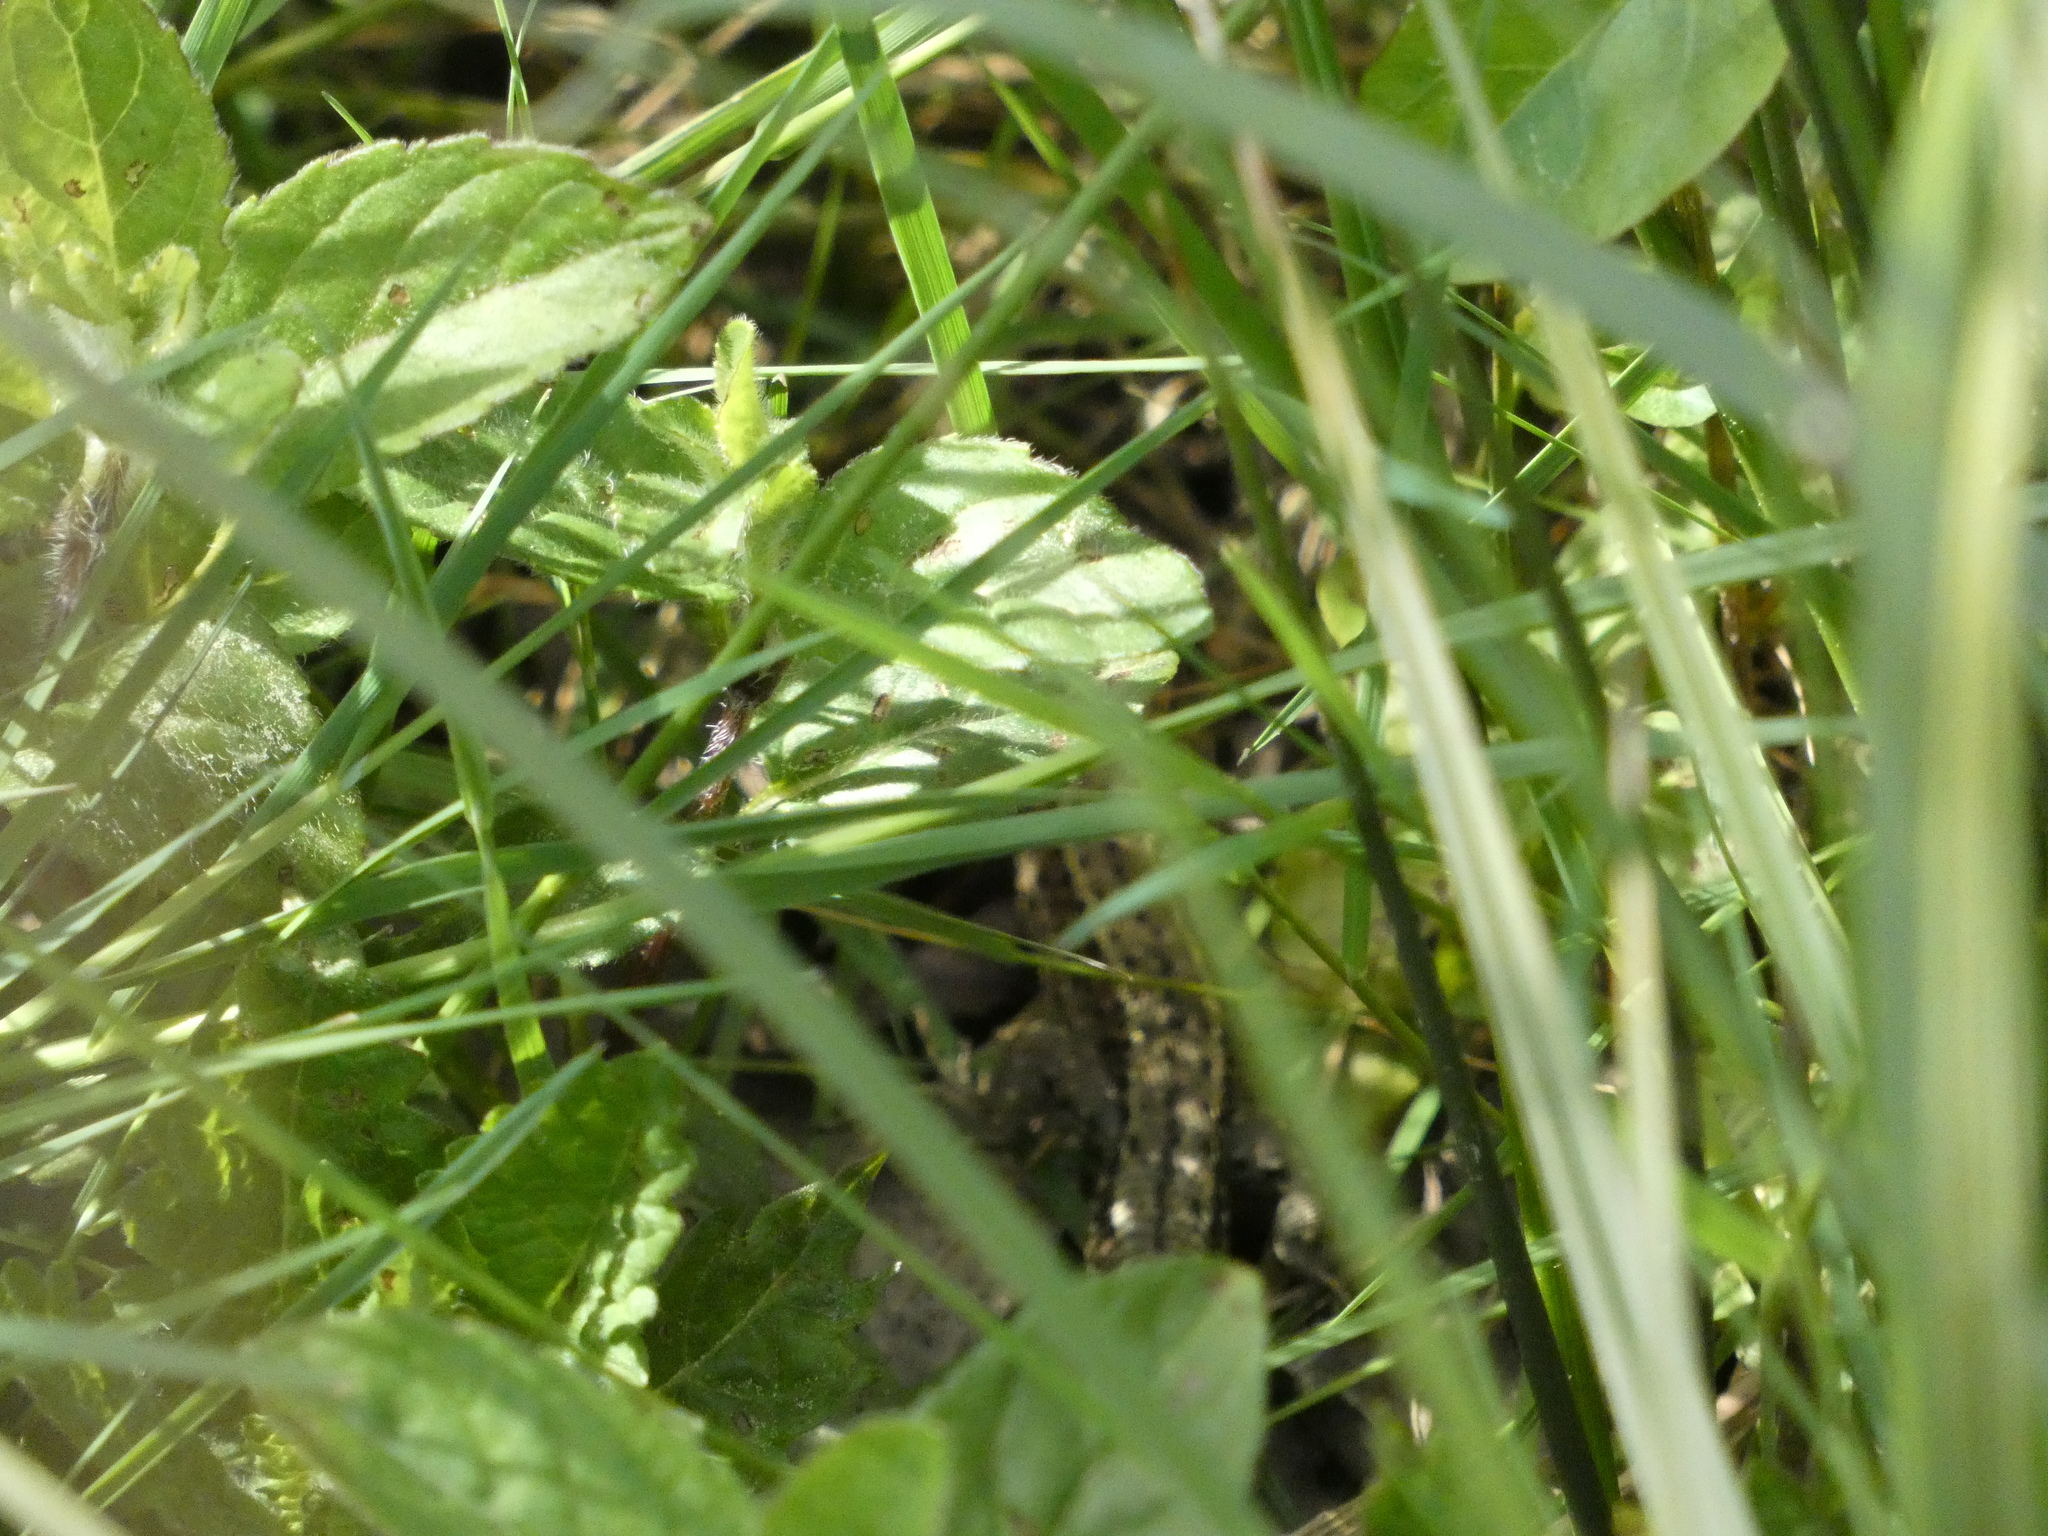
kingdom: Animalia
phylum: Chordata
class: Squamata
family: Lacertidae
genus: Zootoca
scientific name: Zootoca vivipara
